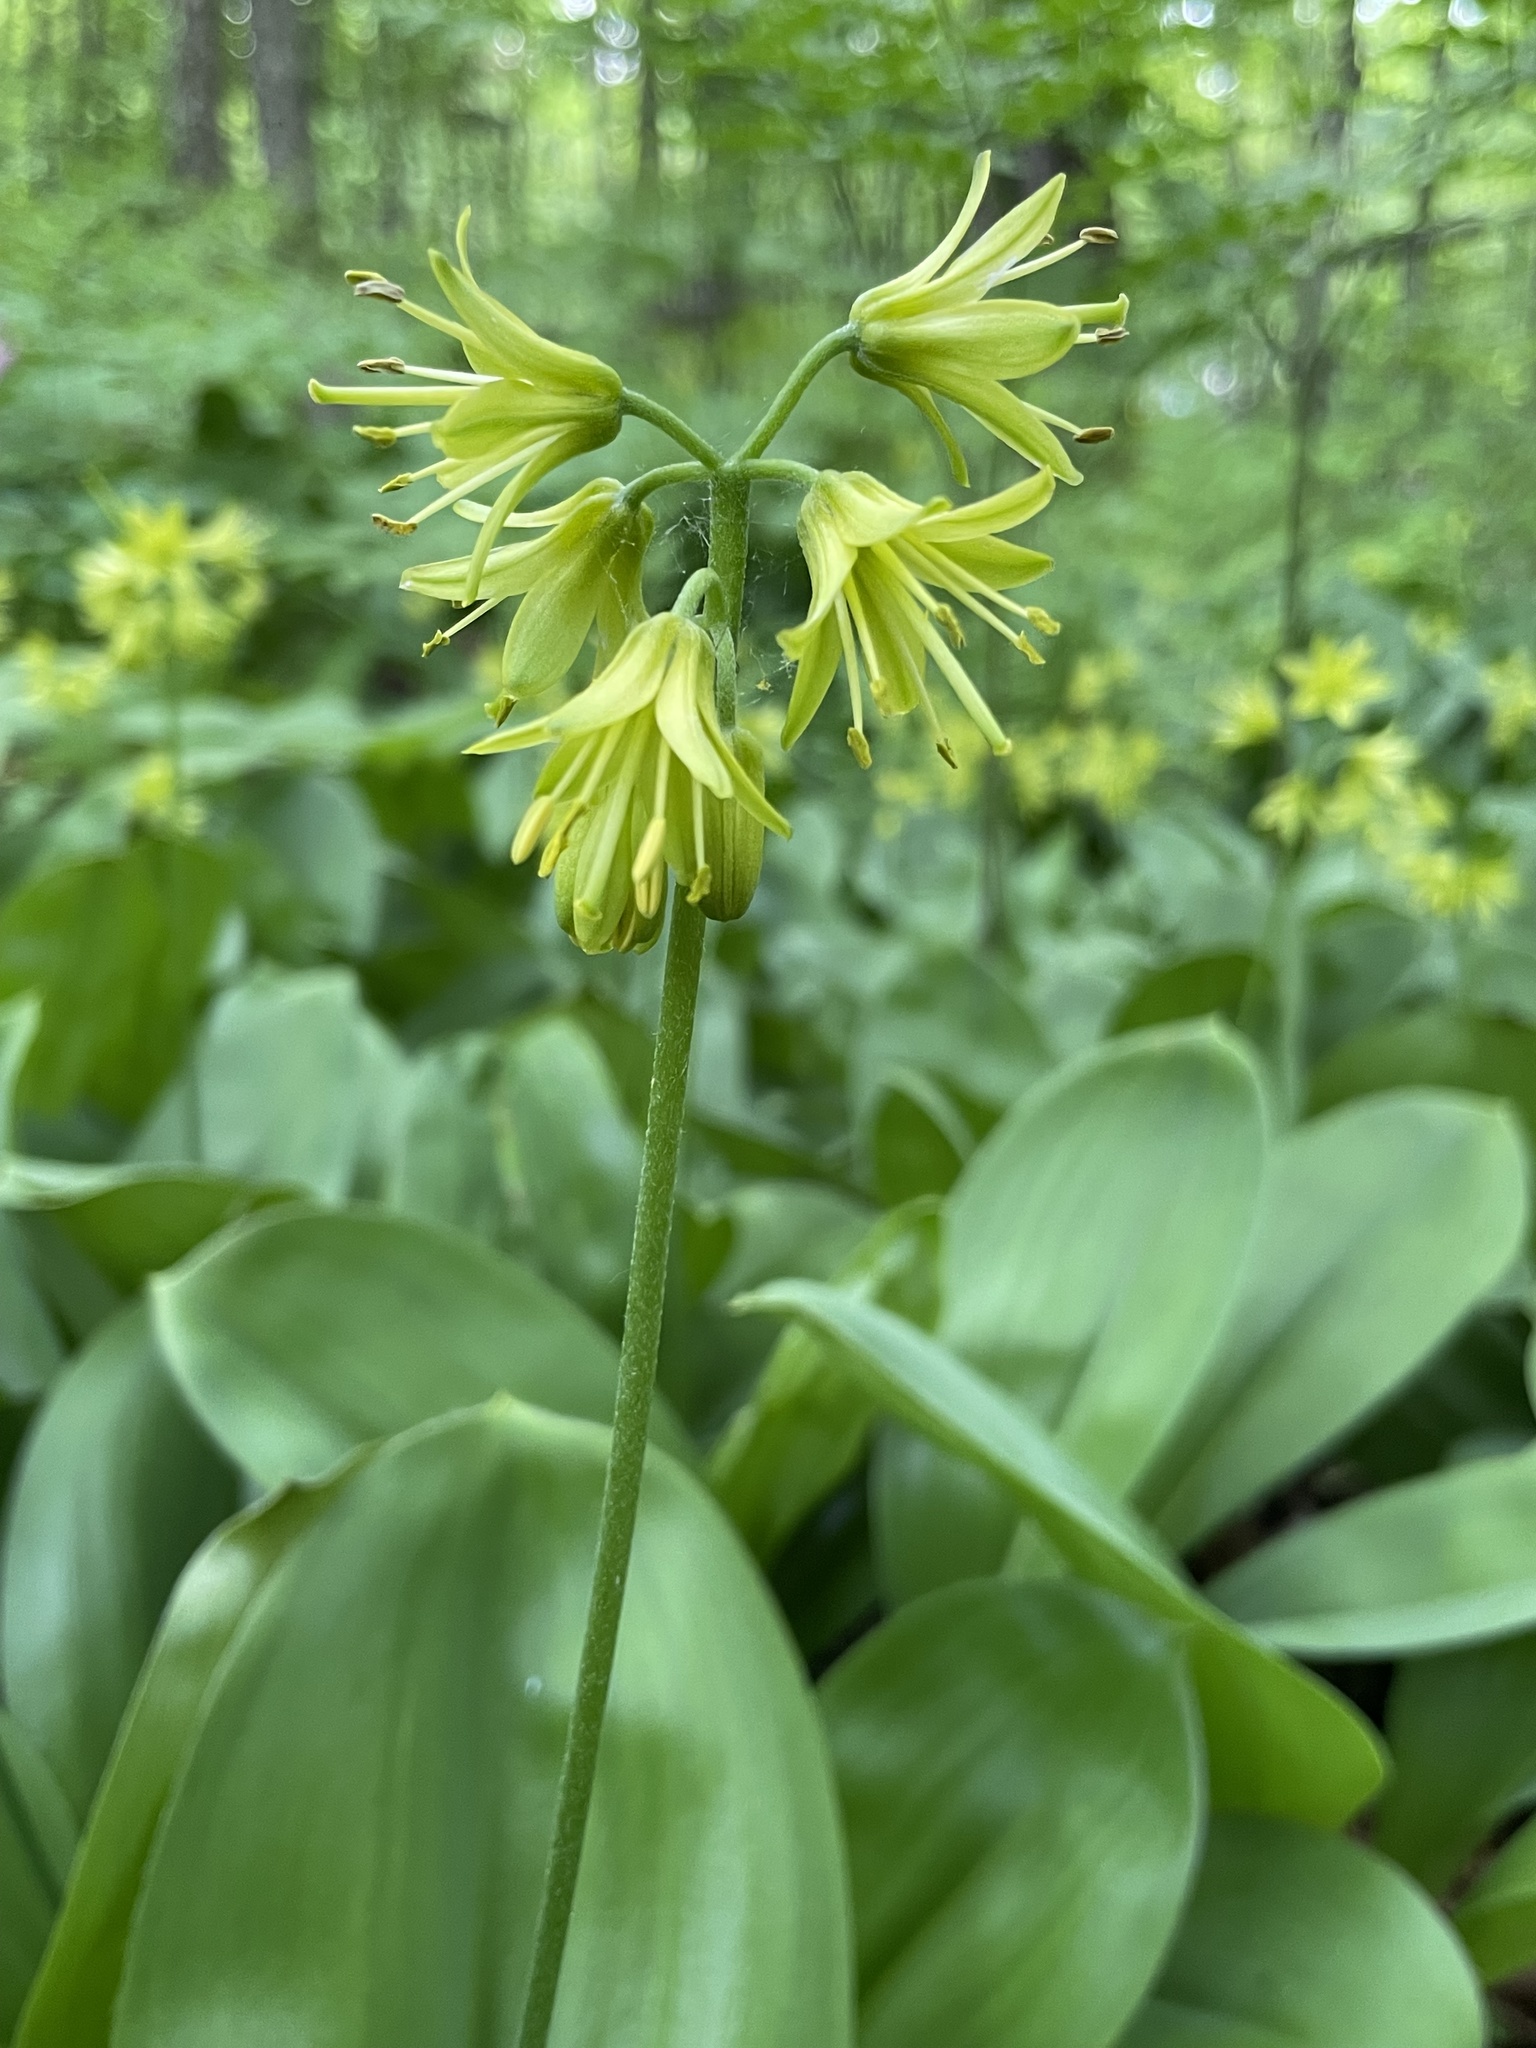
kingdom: Plantae
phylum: Tracheophyta
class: Liliopsida
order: Liliales
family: Liliaceae
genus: Clintonia
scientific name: Clintonia borealis
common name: Yellow clintonia
